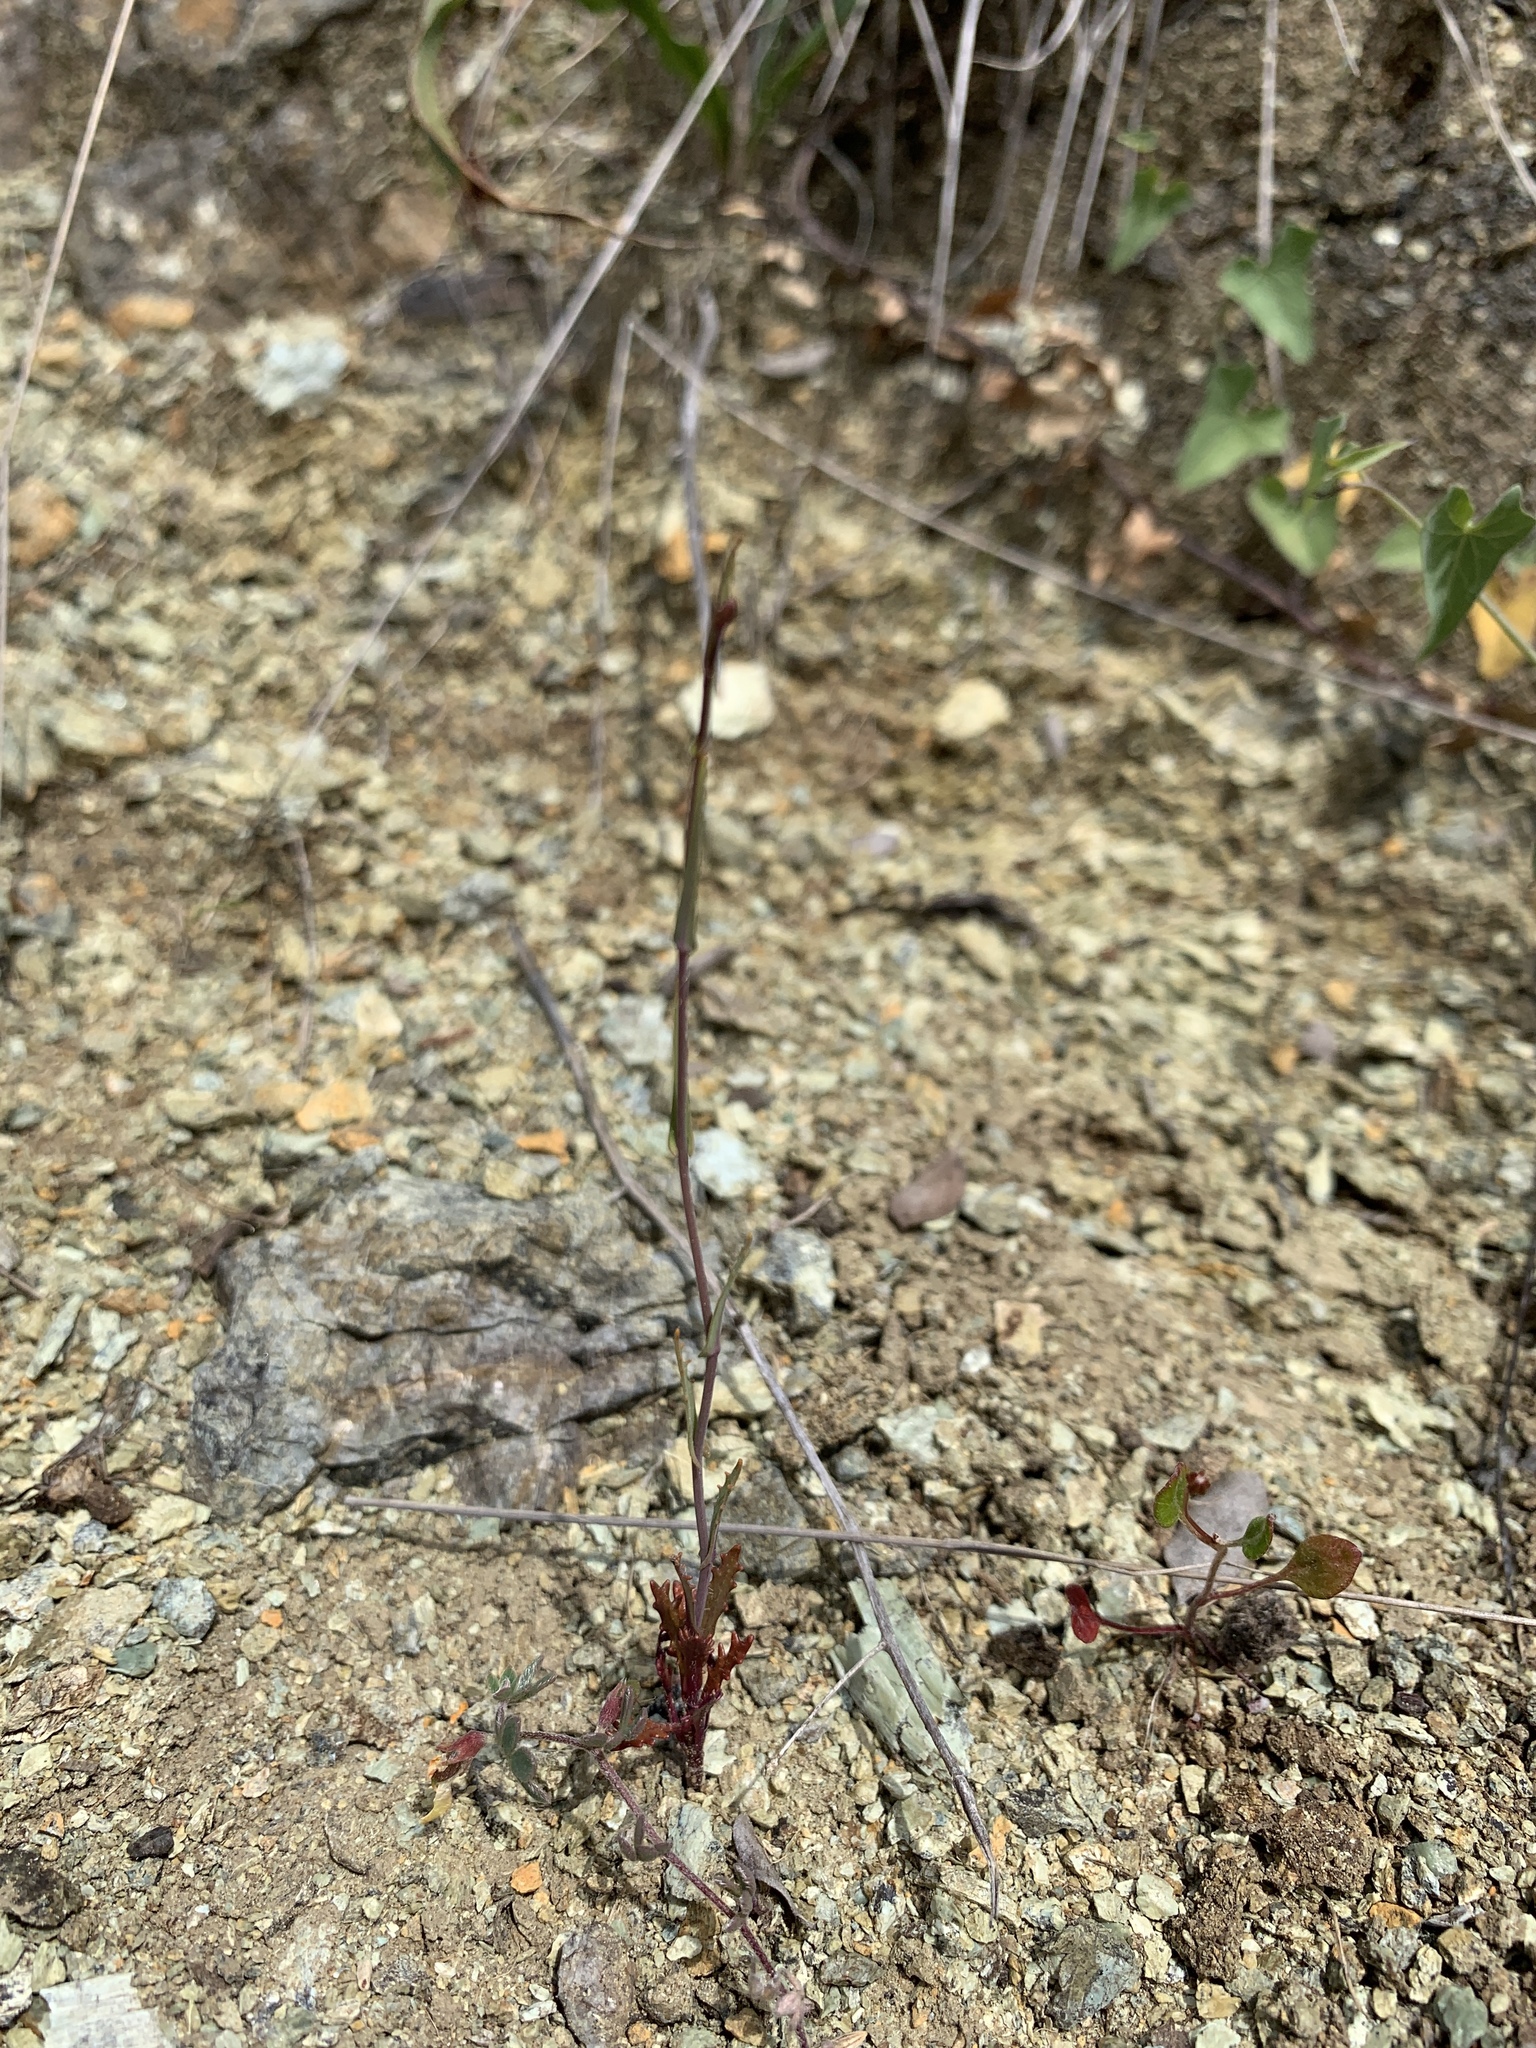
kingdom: Plantae
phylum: Tracheophyta
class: Magnoliopsida
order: Brassicales
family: Brassicaceae
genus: Streptanthus
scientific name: Streptanthus glandulosus
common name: Jewel-flower
